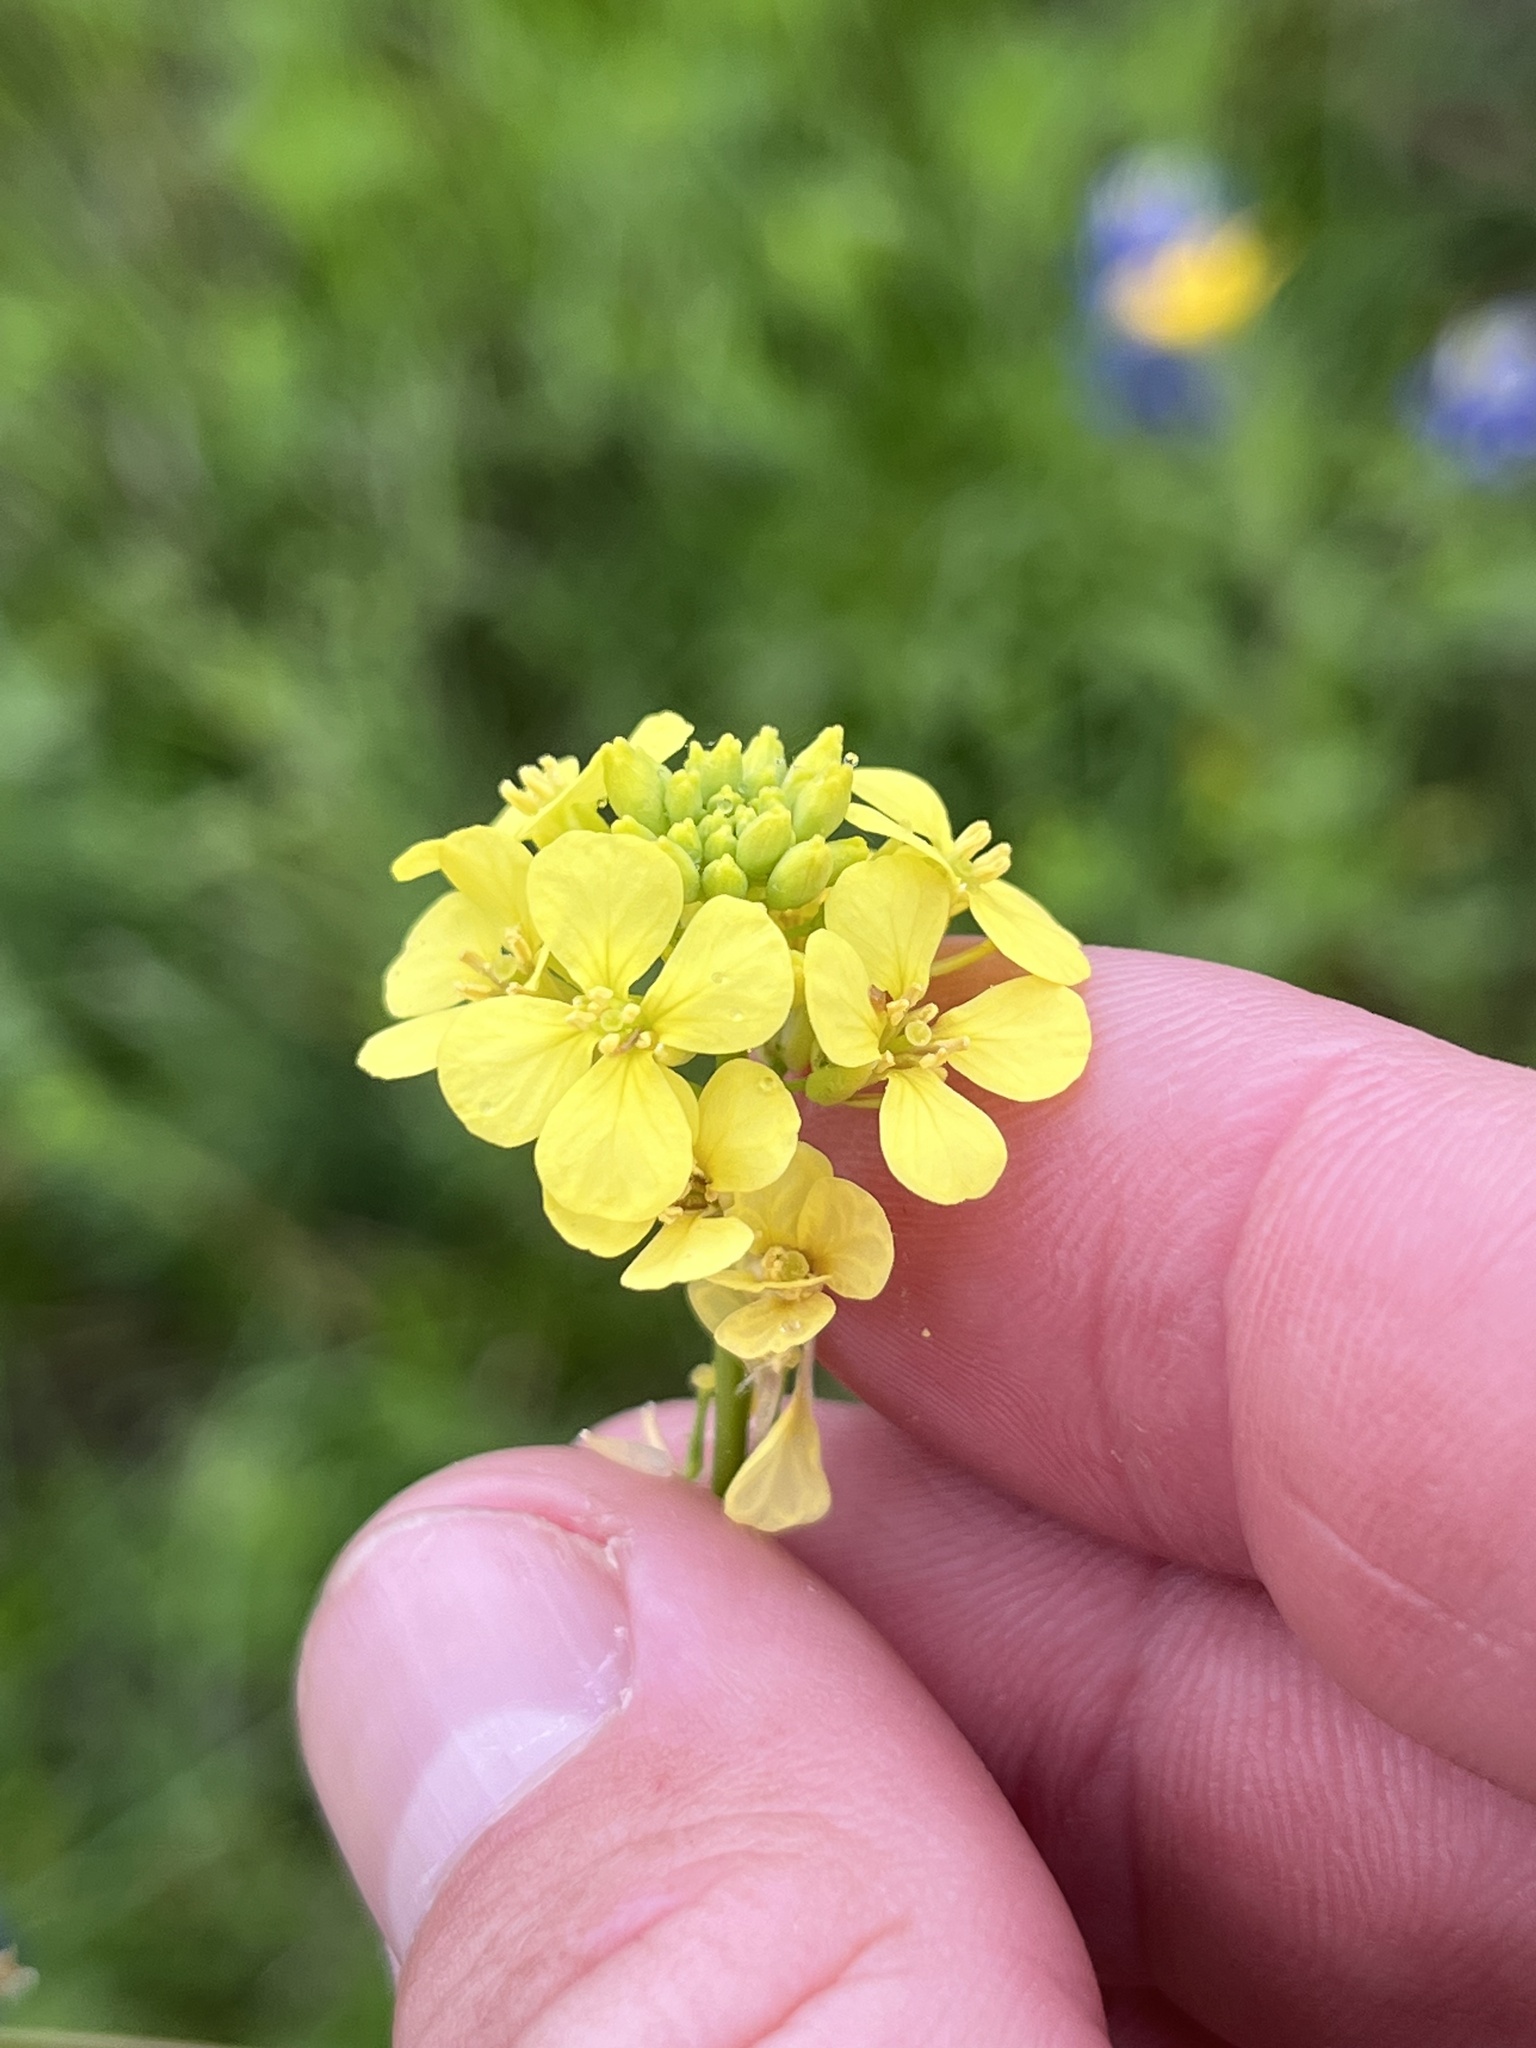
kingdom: Plantae
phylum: Tracheophyta
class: Magnoliopsida
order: Brassicales
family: Brassicaceae
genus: Rapistrum
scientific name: Rapistrum rugosum
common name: Annual bastardcabbage
